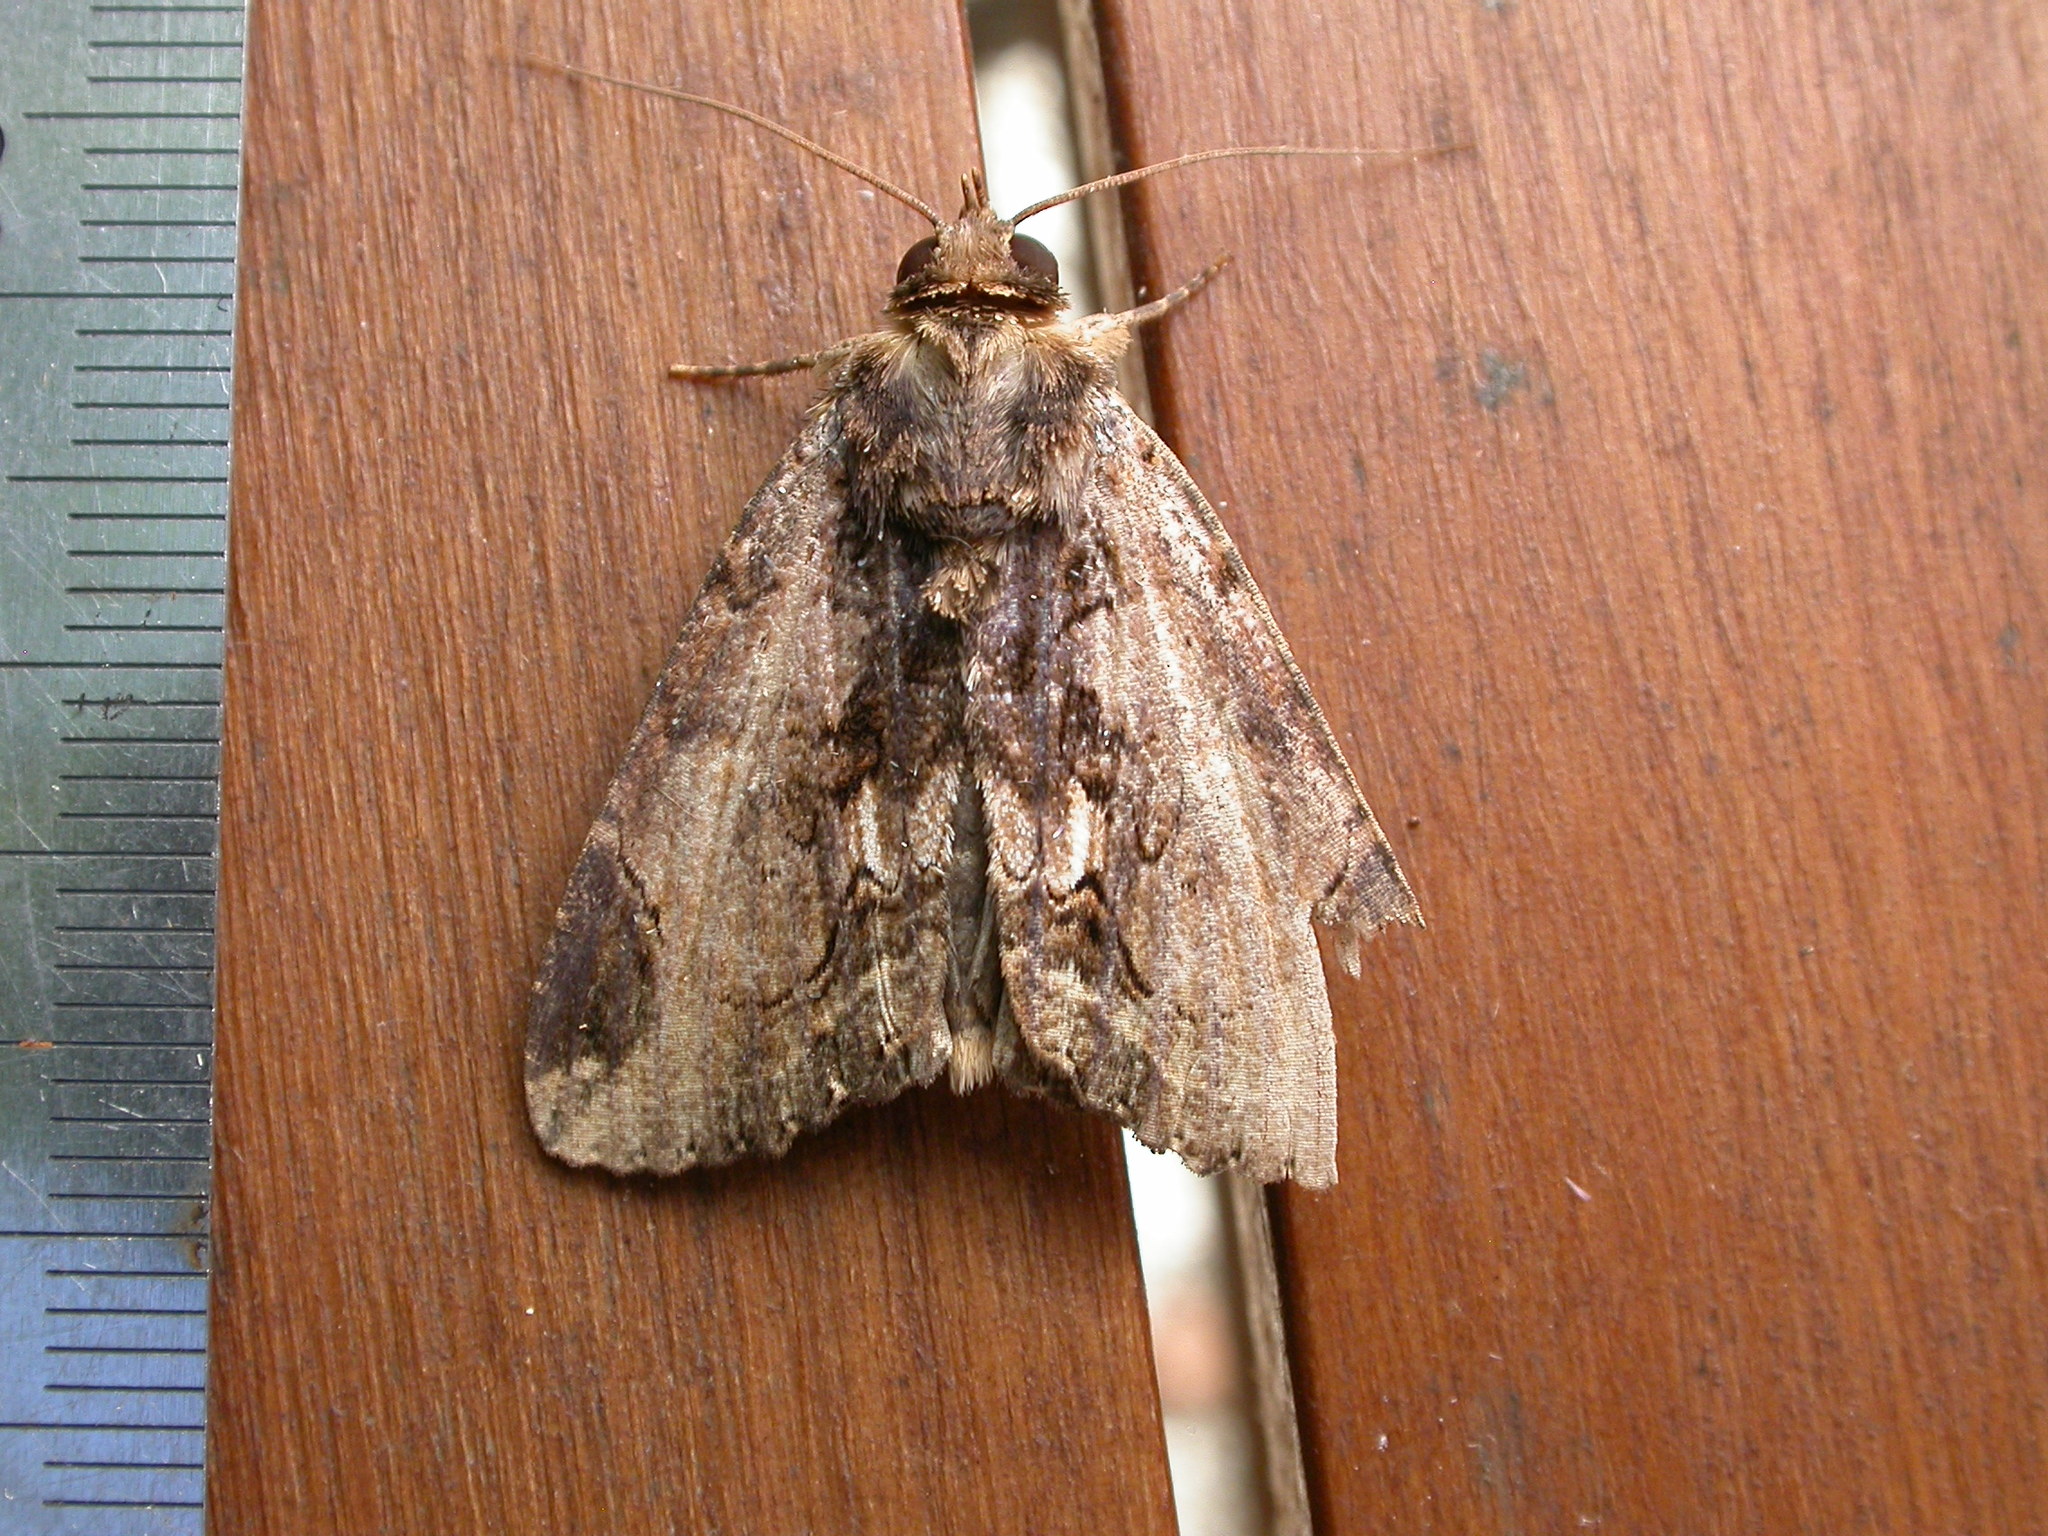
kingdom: Animalia
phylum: Arthropoda
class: Insecta
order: Lepidoptera
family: Erebidae
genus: Ercheia
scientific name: Ercheia dubia
